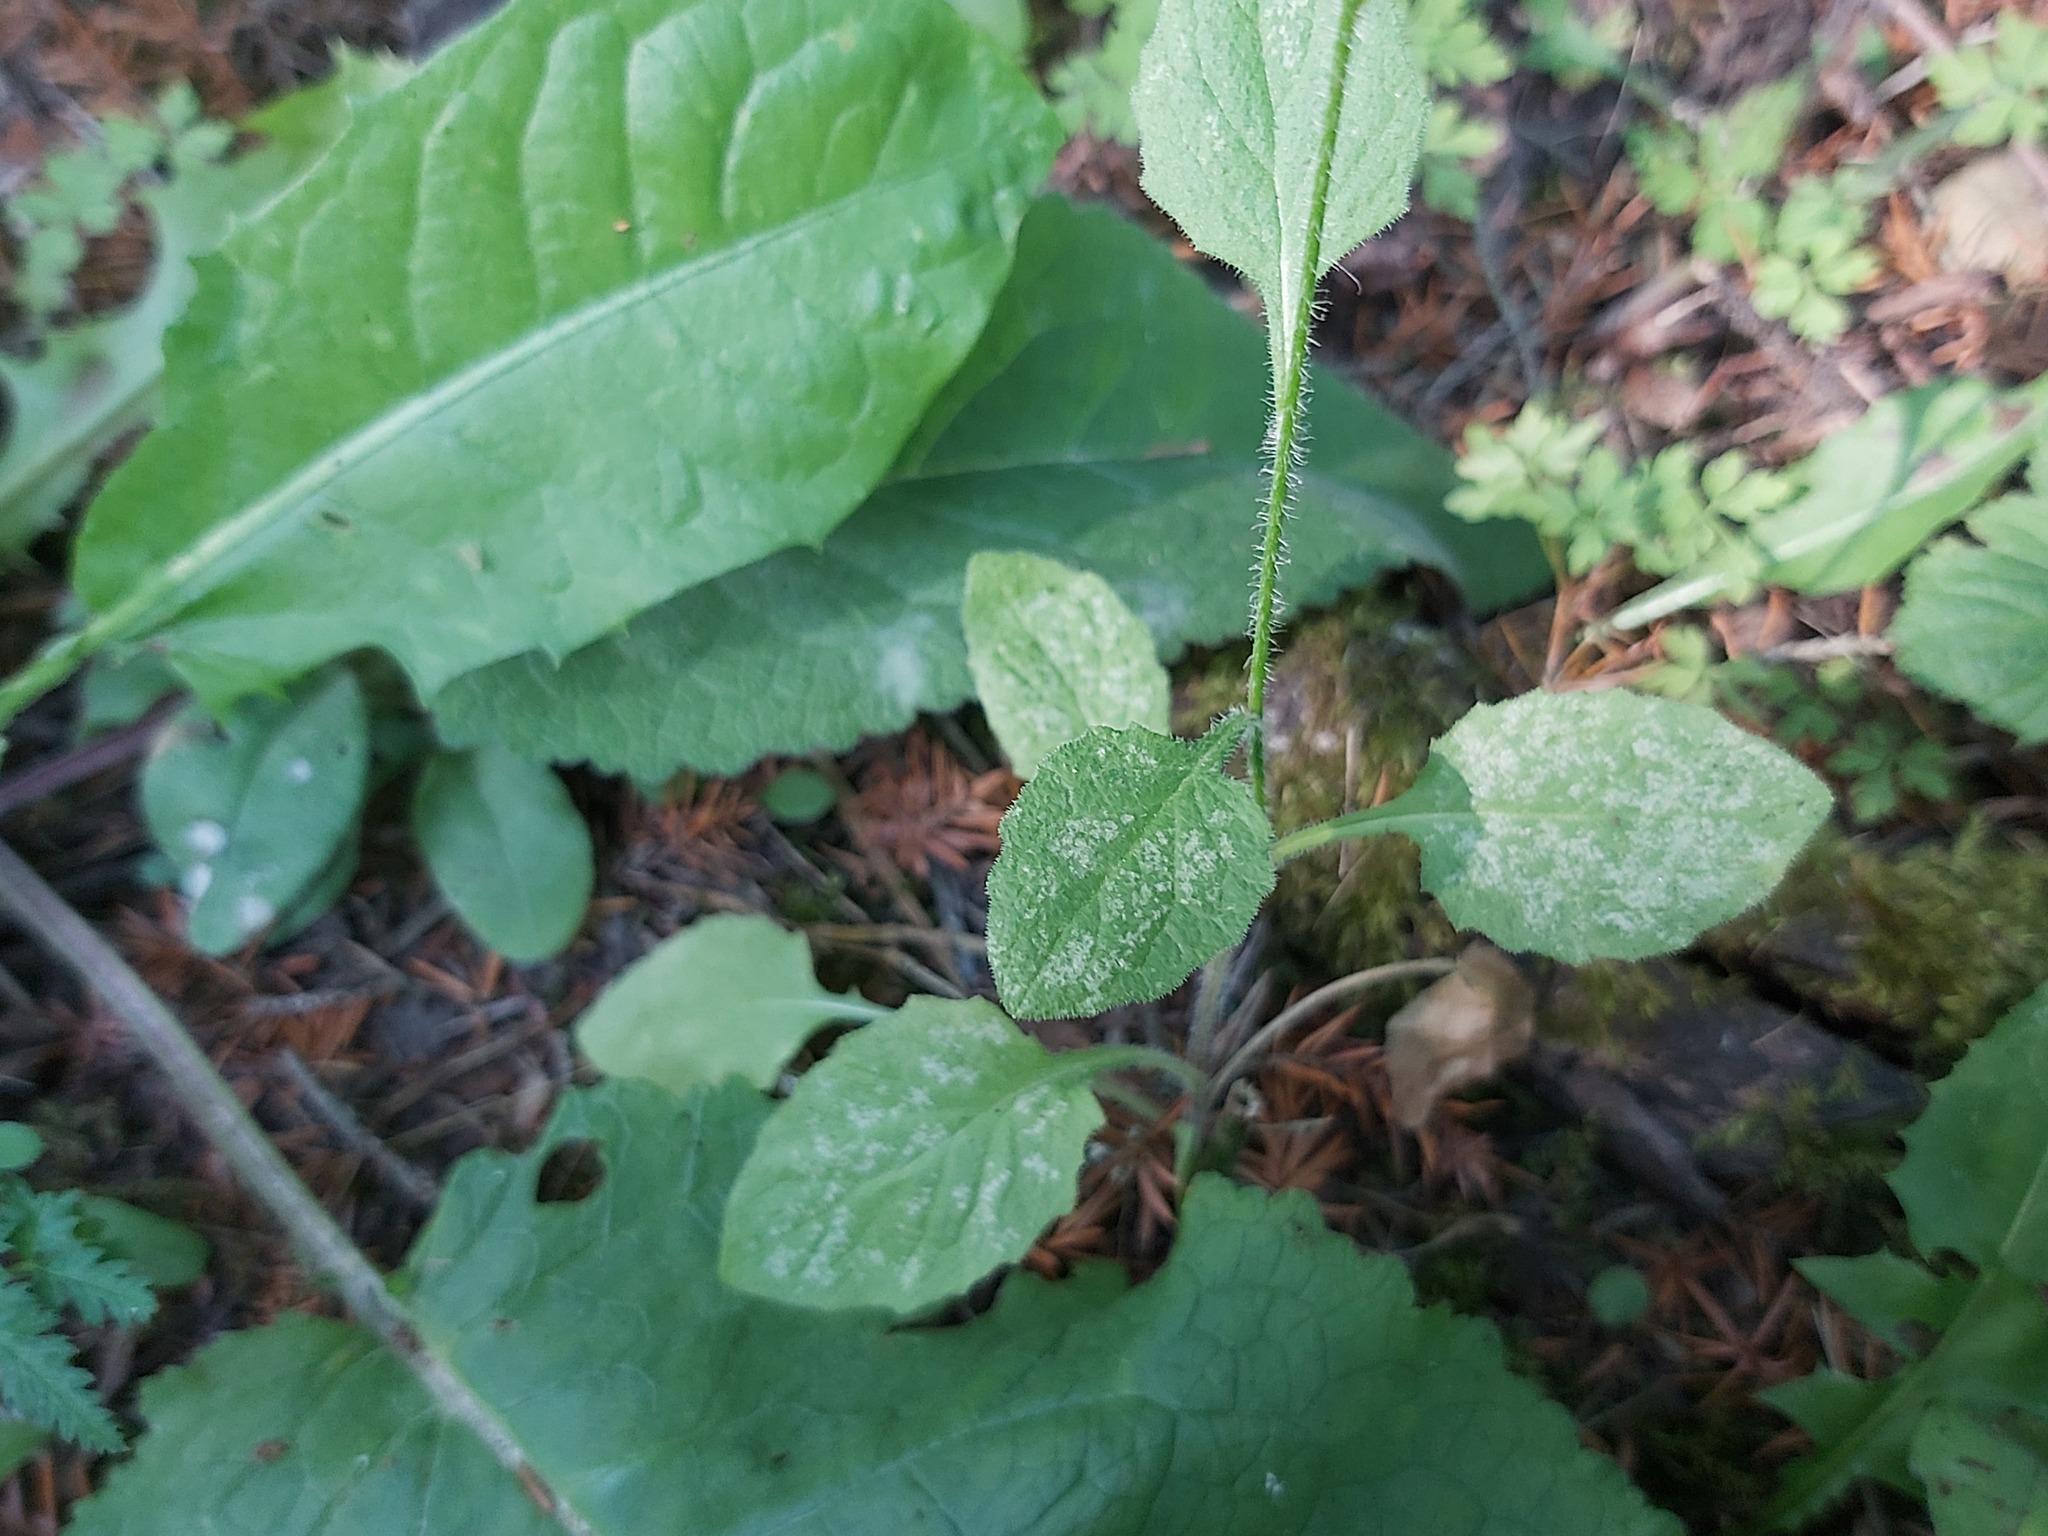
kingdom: Plantae
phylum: Tracheophyta
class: Magnoliopsida
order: Asterales
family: Asteraceae
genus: Lapsana
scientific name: Lapsana communis
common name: Nipplewort
